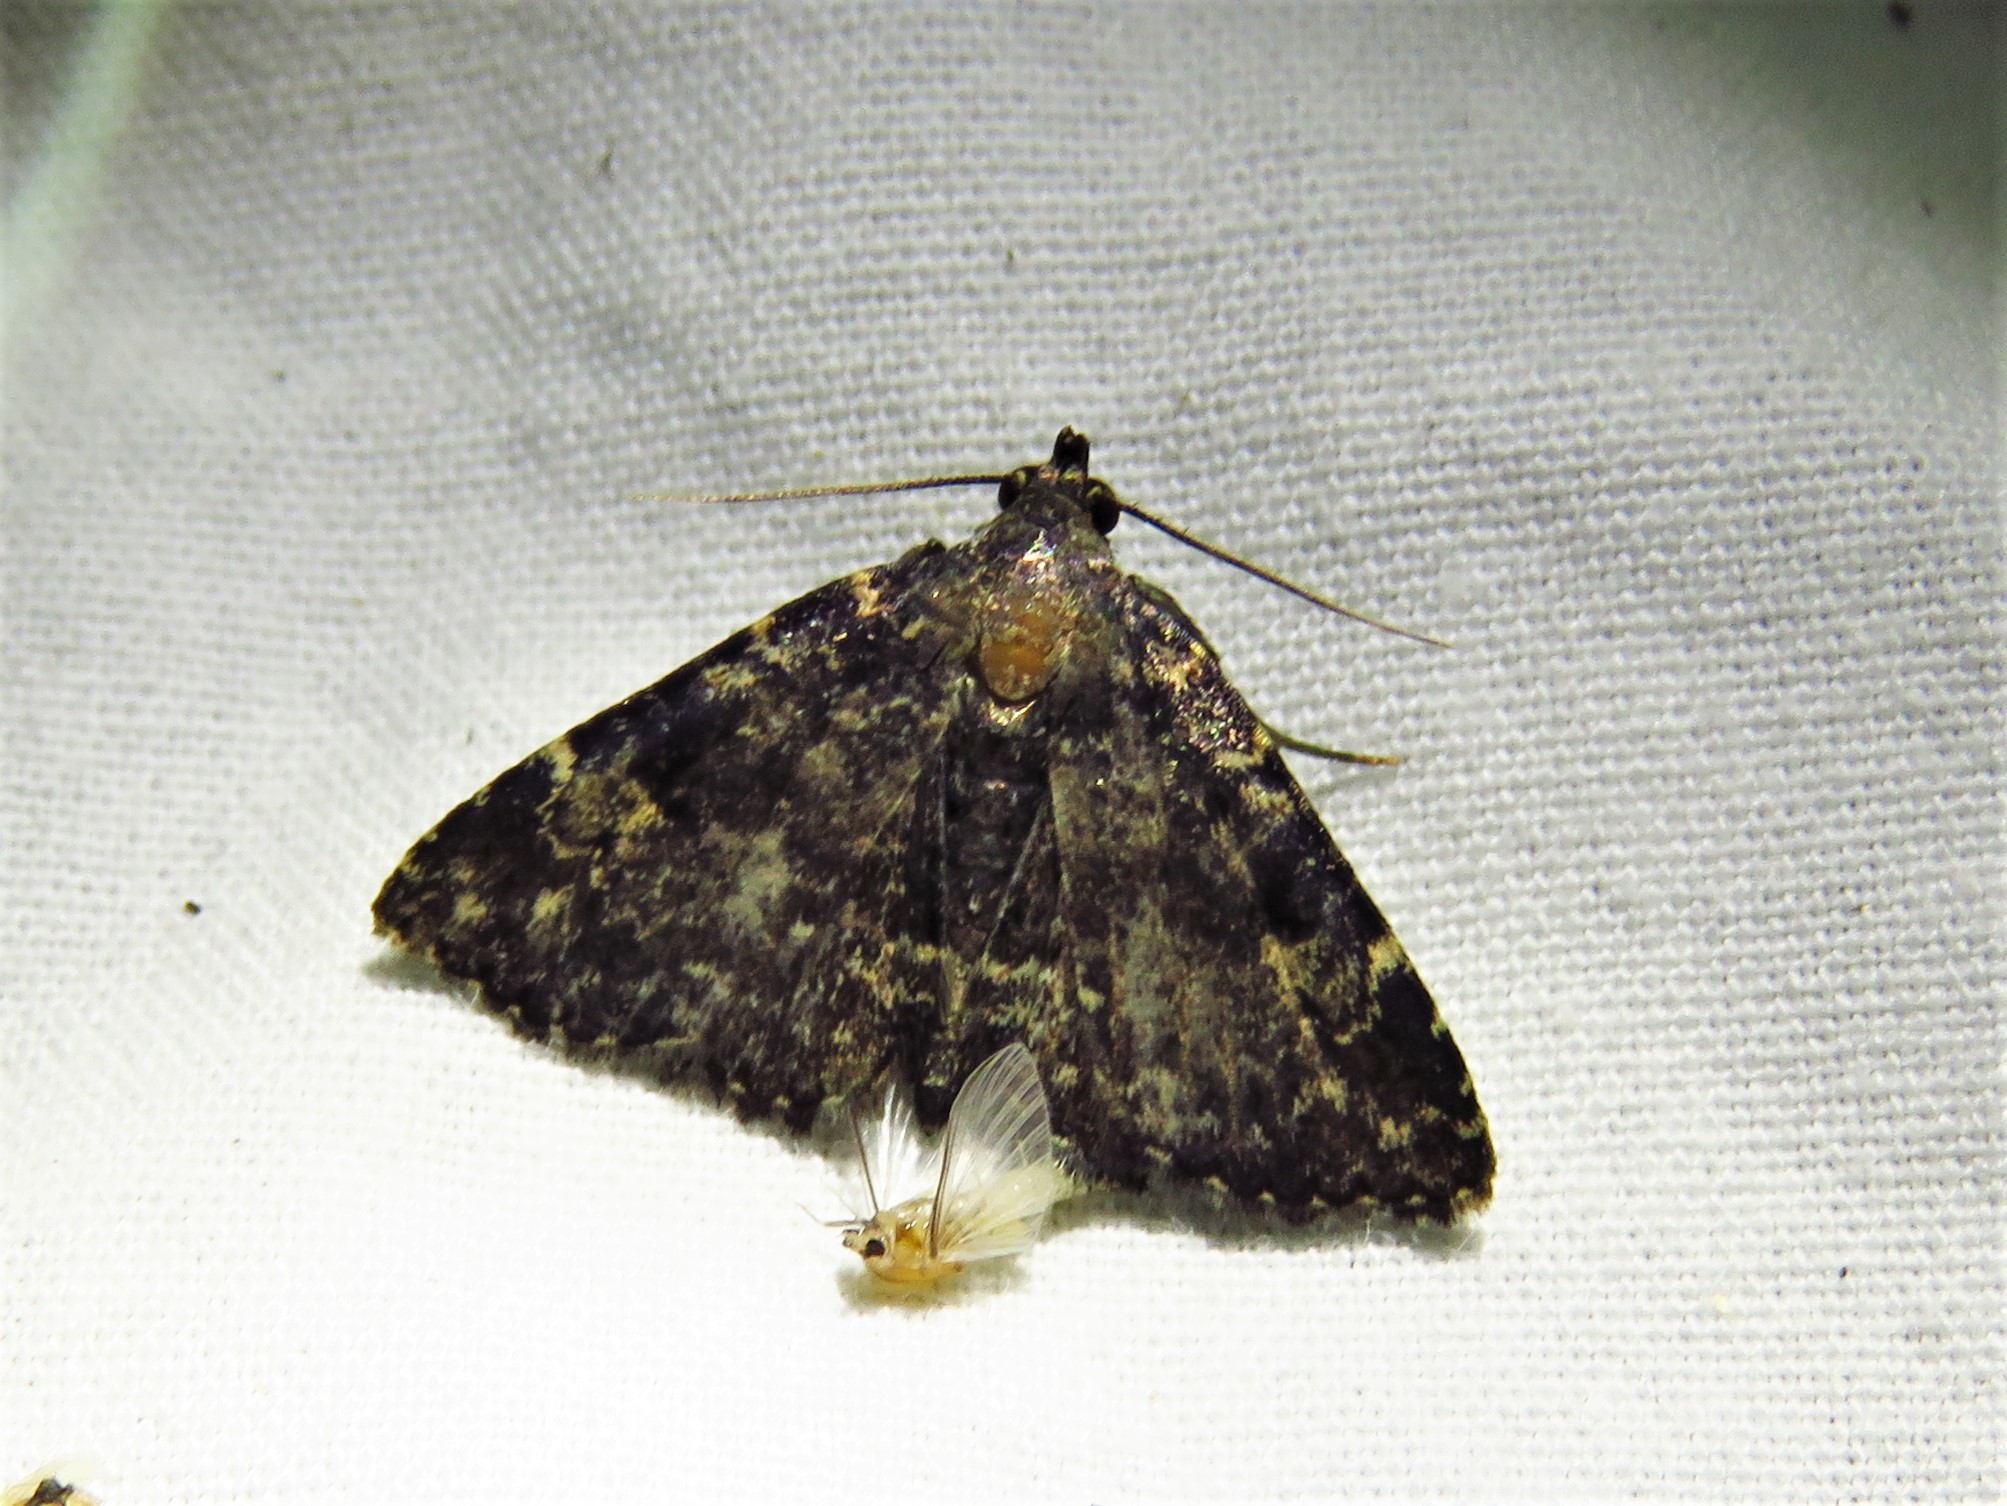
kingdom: Animalia
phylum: Arthropoda
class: Insecta
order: Lepidoptera
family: Erebidae
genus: Metalectra
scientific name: Metalectra diabolica
